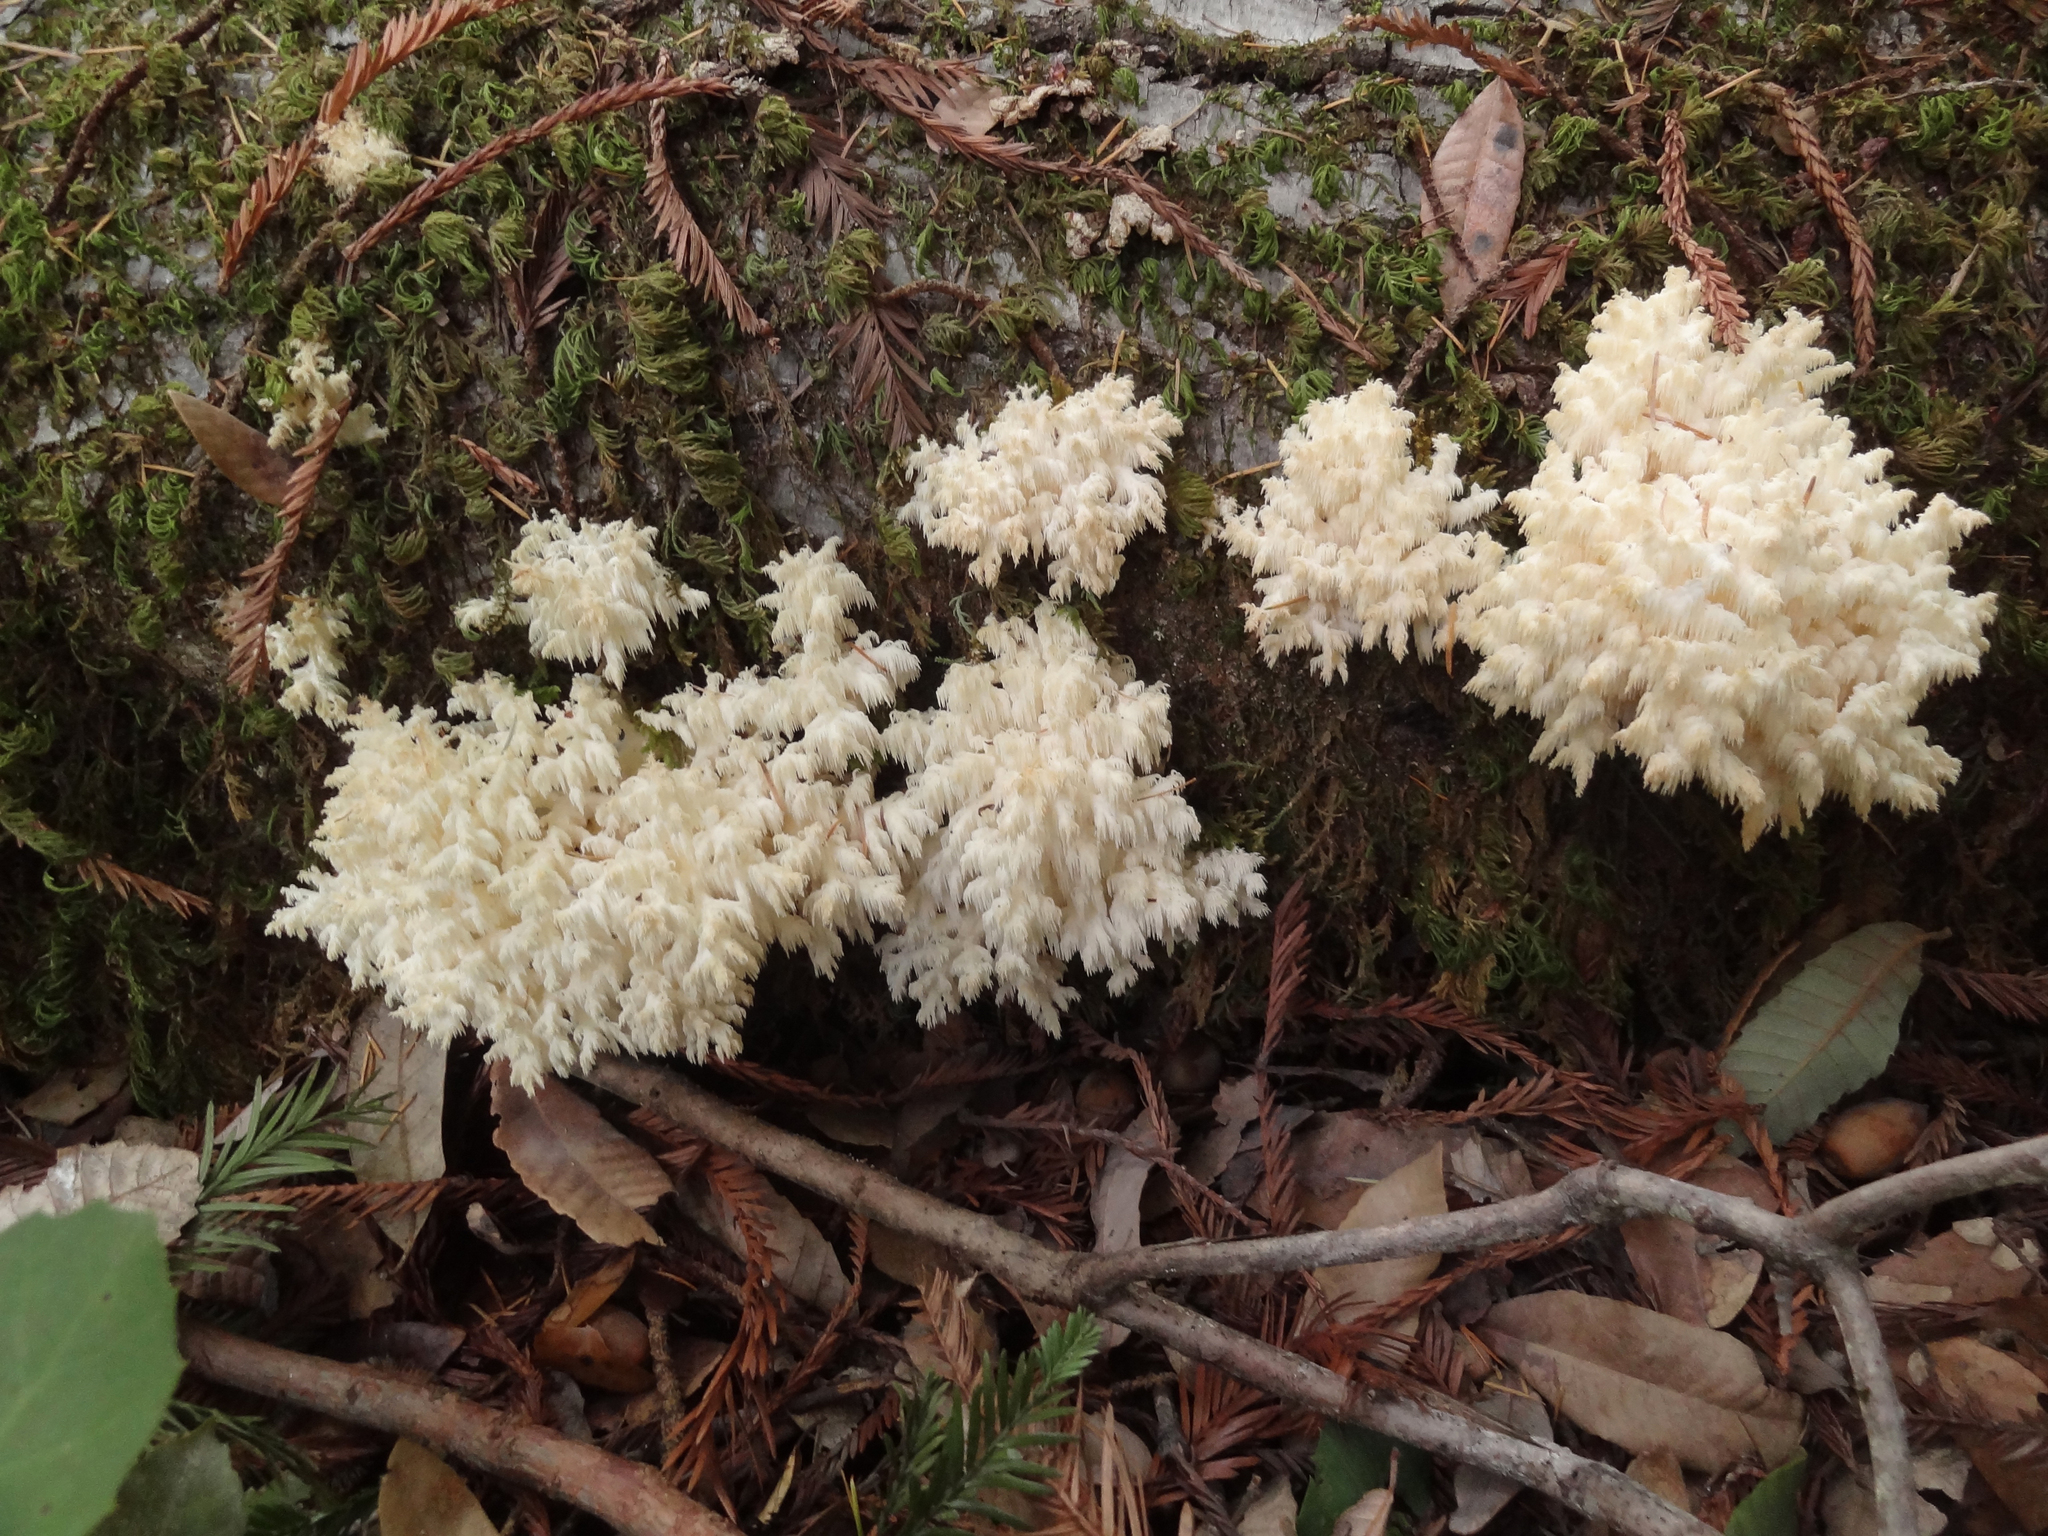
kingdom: Fungi
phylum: Basidiomycota
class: Agaricomycetes
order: Russulales
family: Hericiaceae
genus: Hericium
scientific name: Hericium coralloides
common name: Coral tooth
